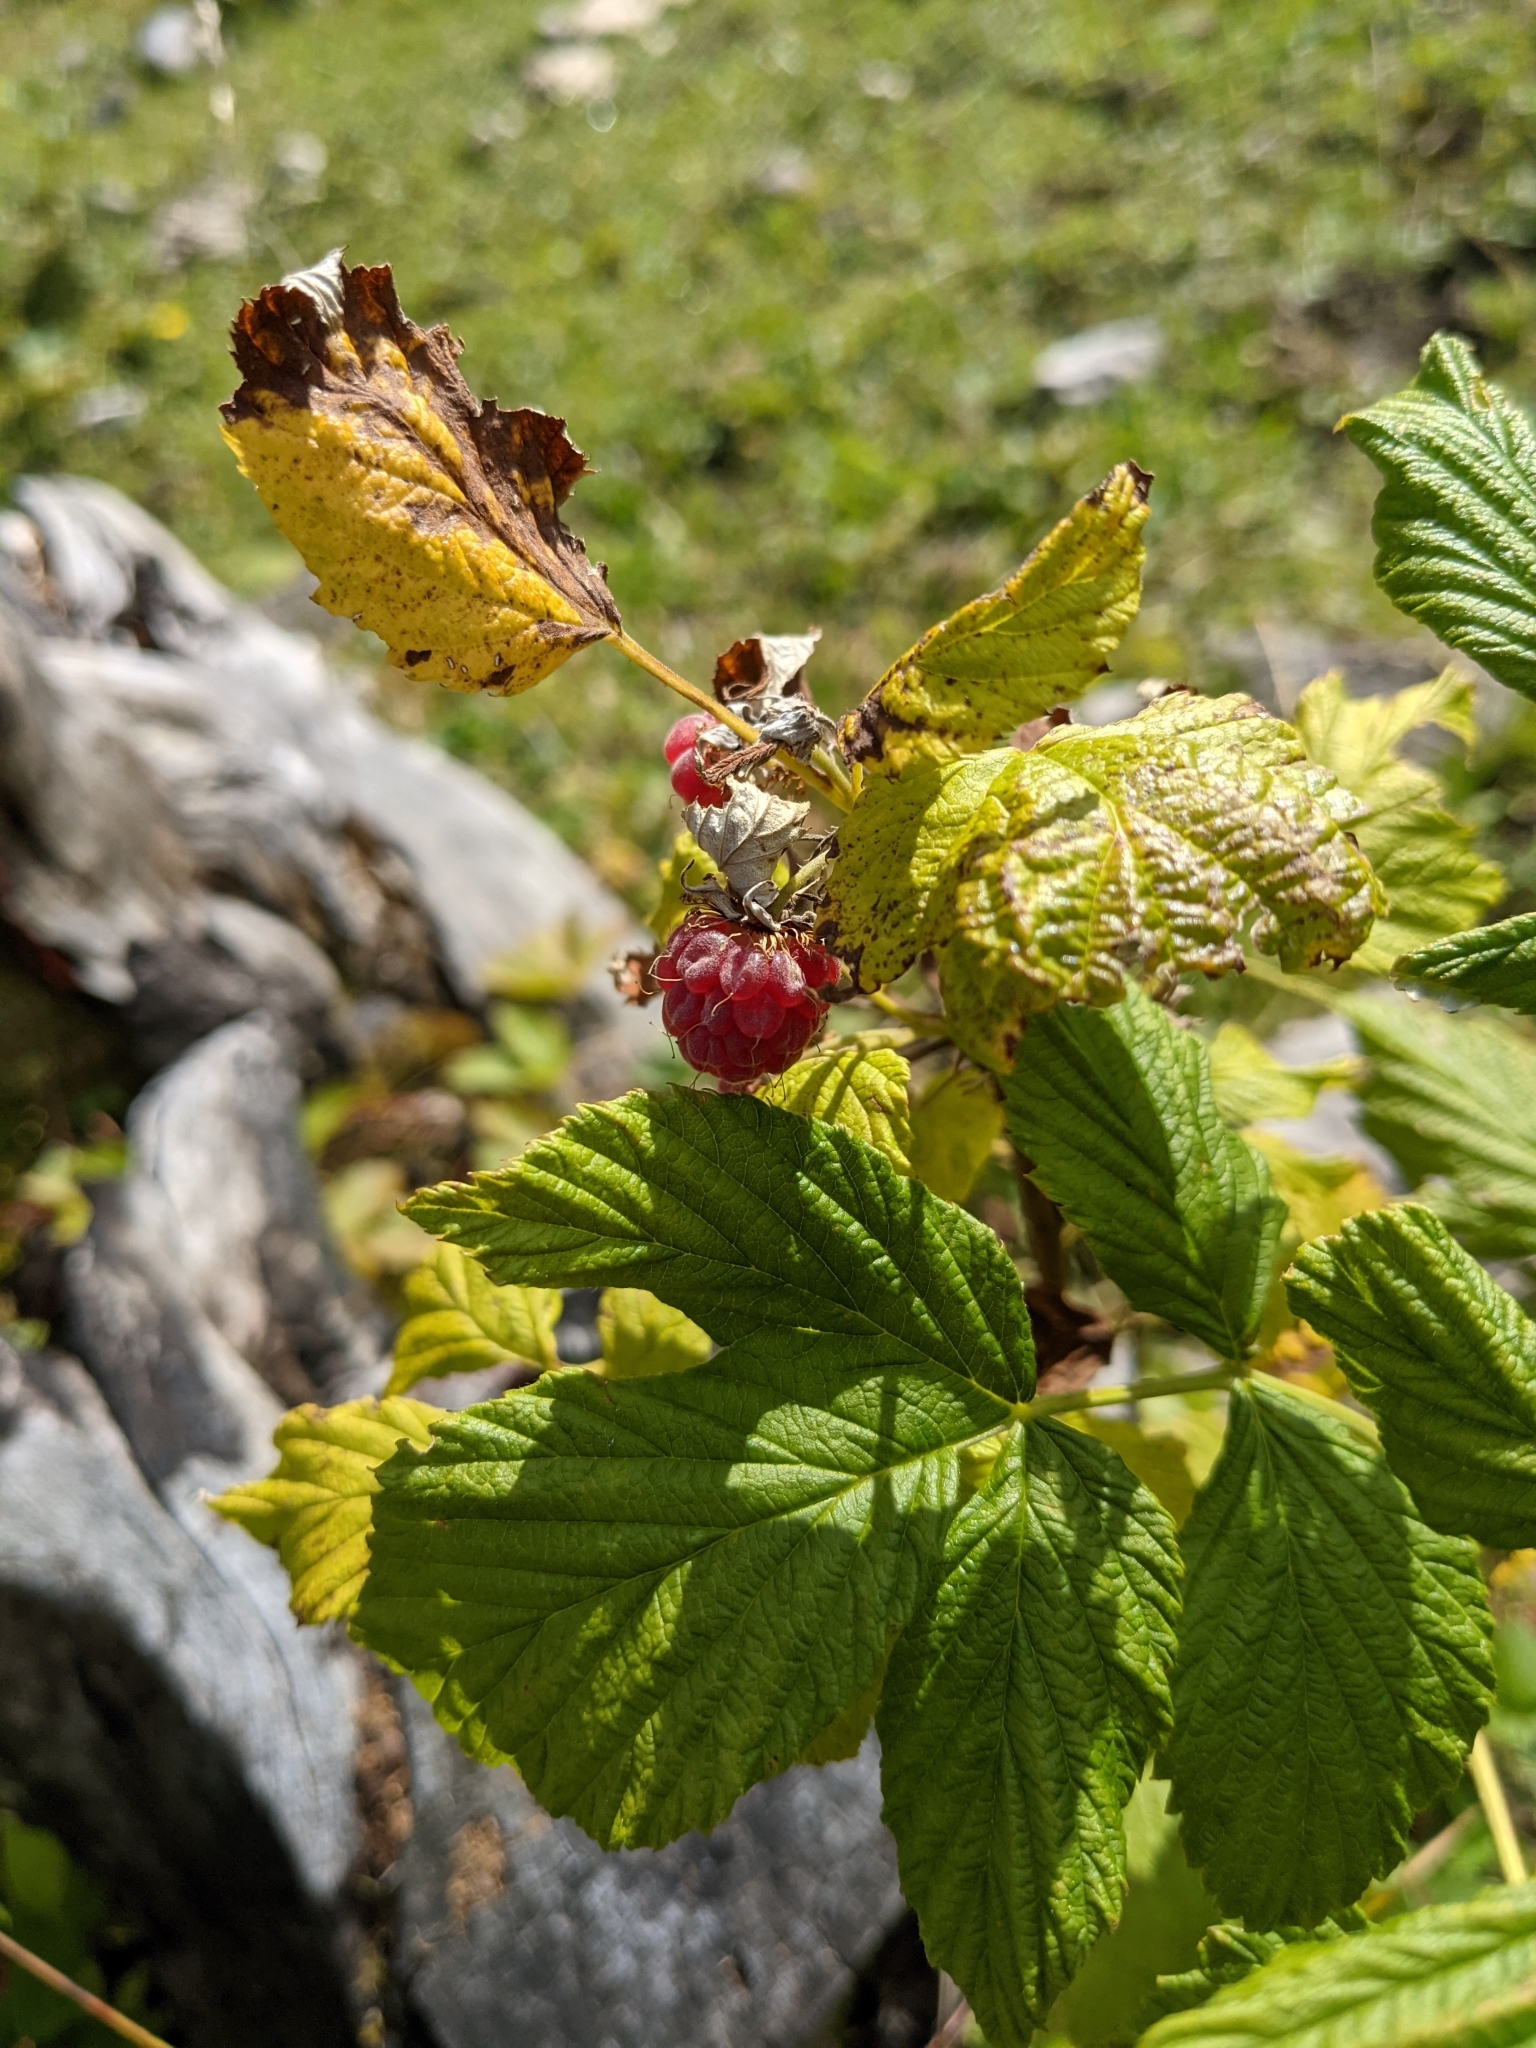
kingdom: Plantae
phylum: Tracheophyta
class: Magnoliopsida
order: Rosales
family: Rosaceae
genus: Rubus
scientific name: Rubus idaeus
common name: Raspberry
